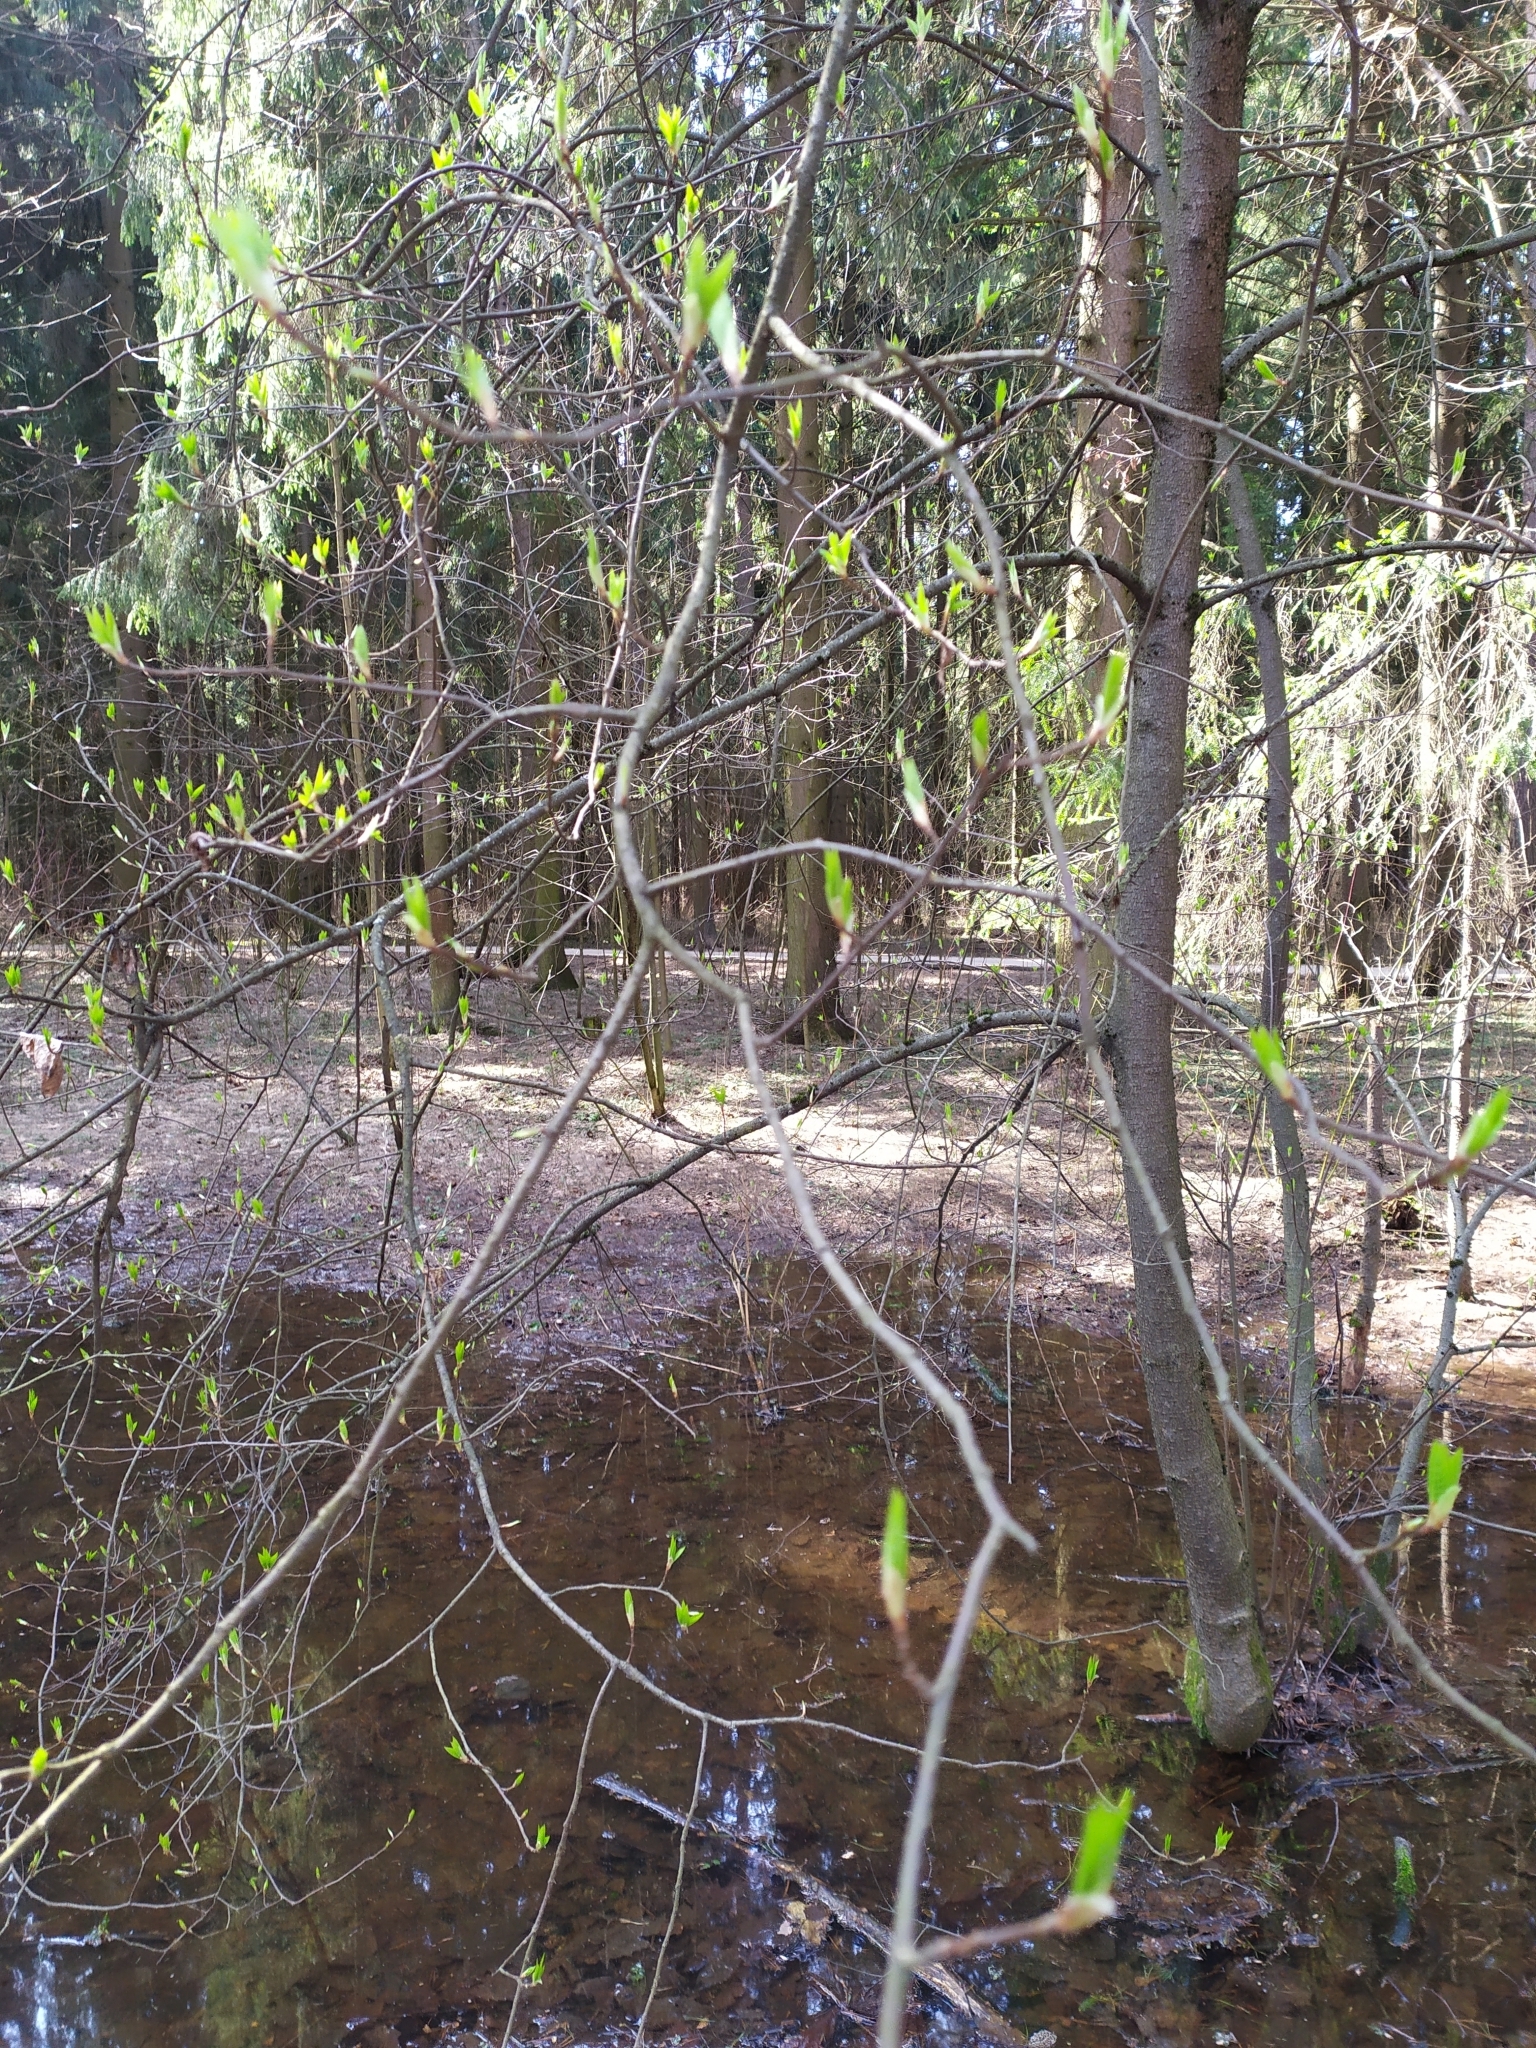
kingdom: Plantae
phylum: Tracheophyta
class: Magnoliopsida
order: Rosales
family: Rosaceae
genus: Prunus
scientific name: Prunus padus
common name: Bird cherry
